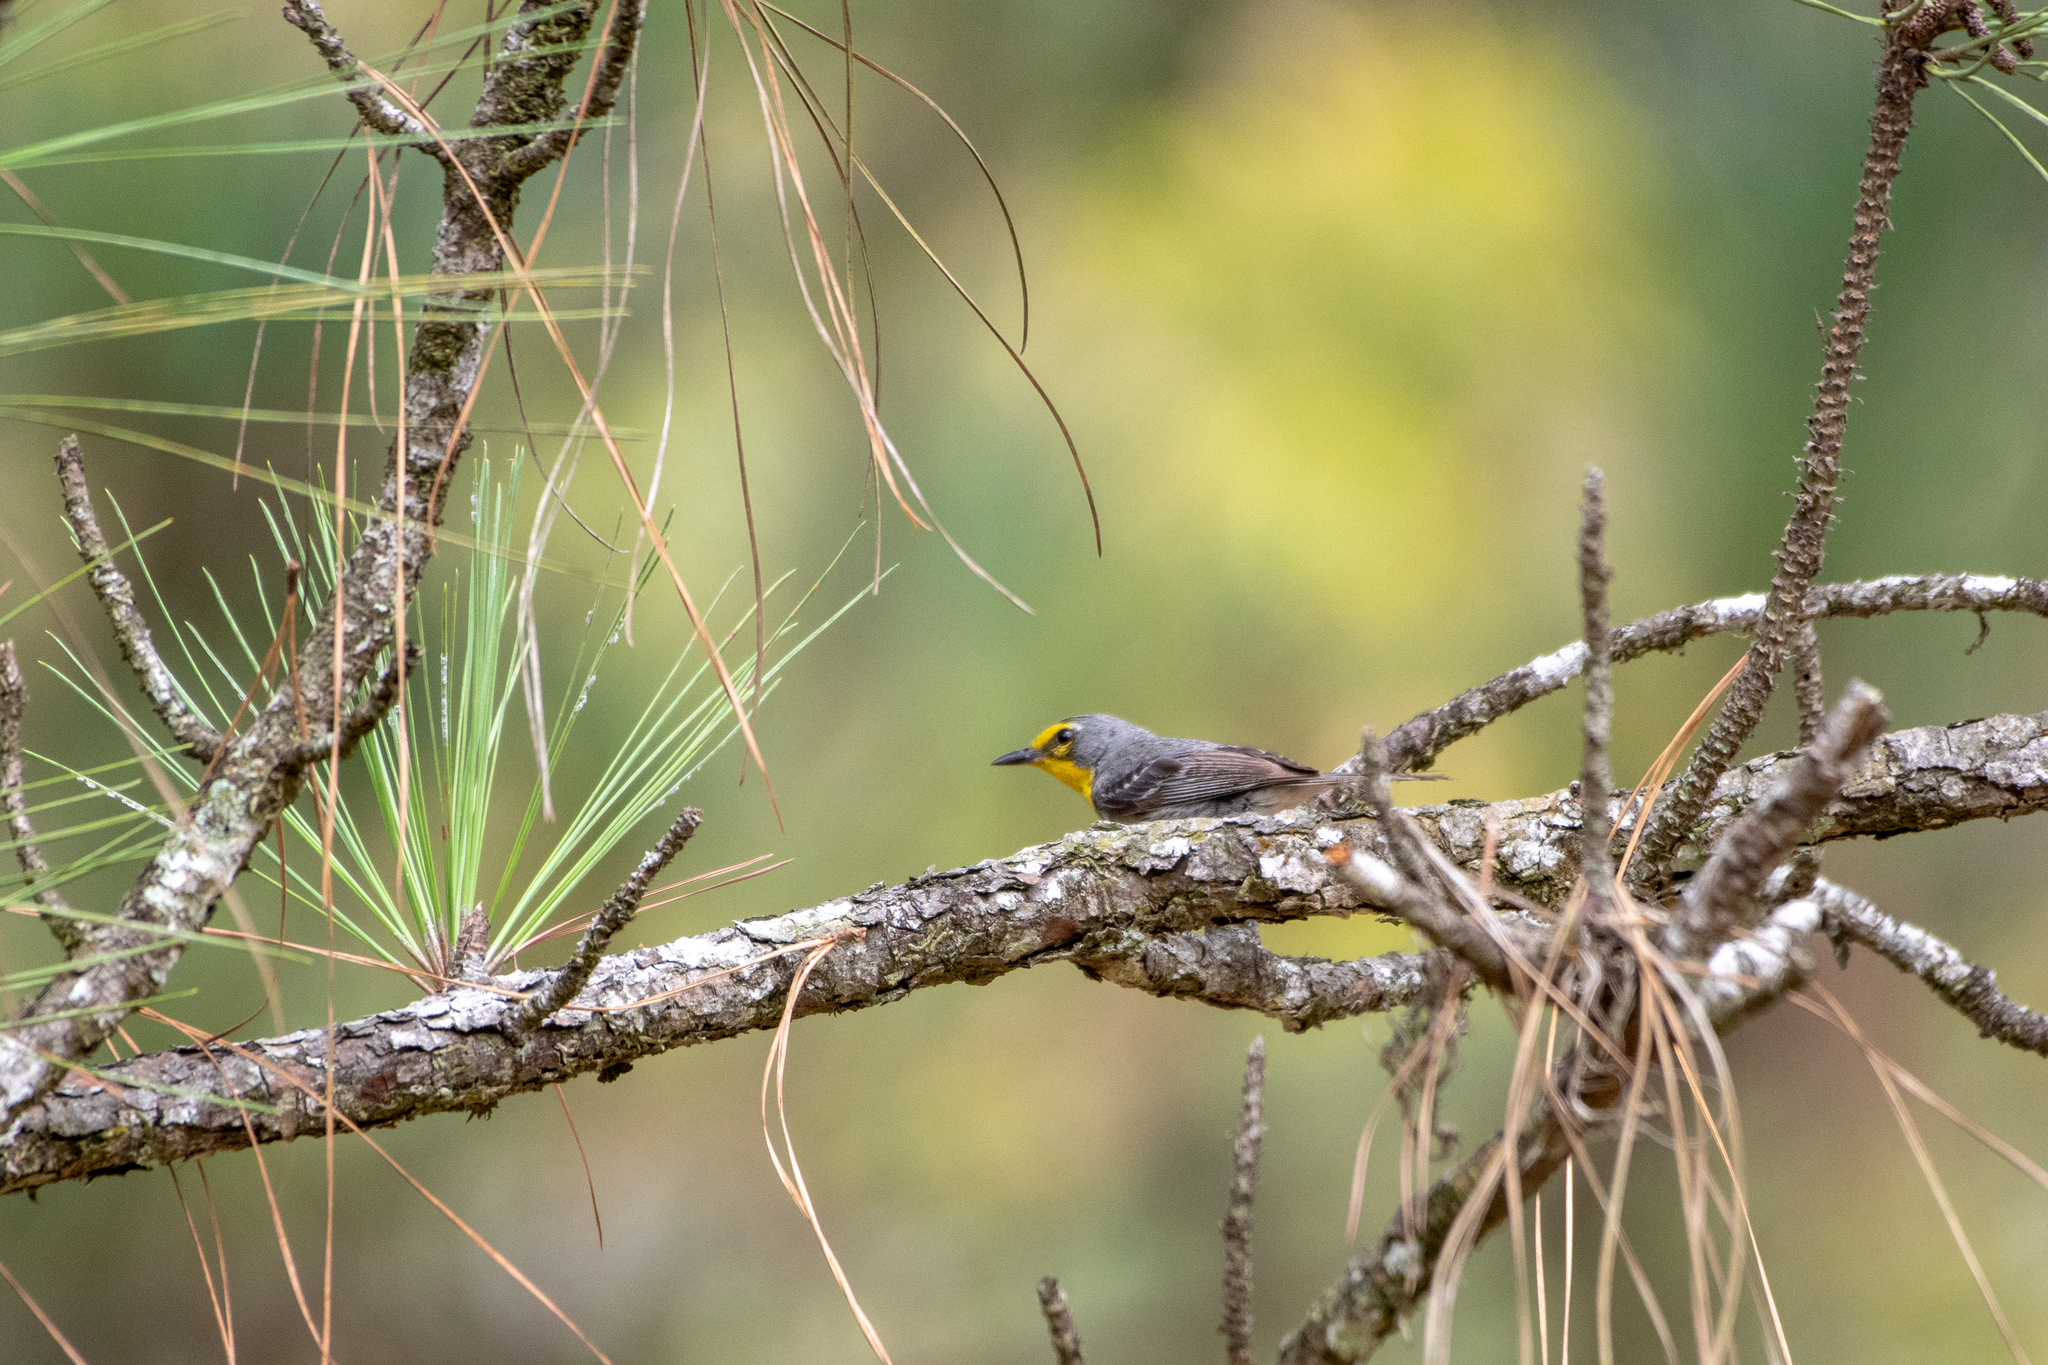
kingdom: Animalia
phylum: Chordata
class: Aves
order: Passeriformes
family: Parulidae
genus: Setophaga
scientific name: Setophaga graciae
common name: Grace's warbler
